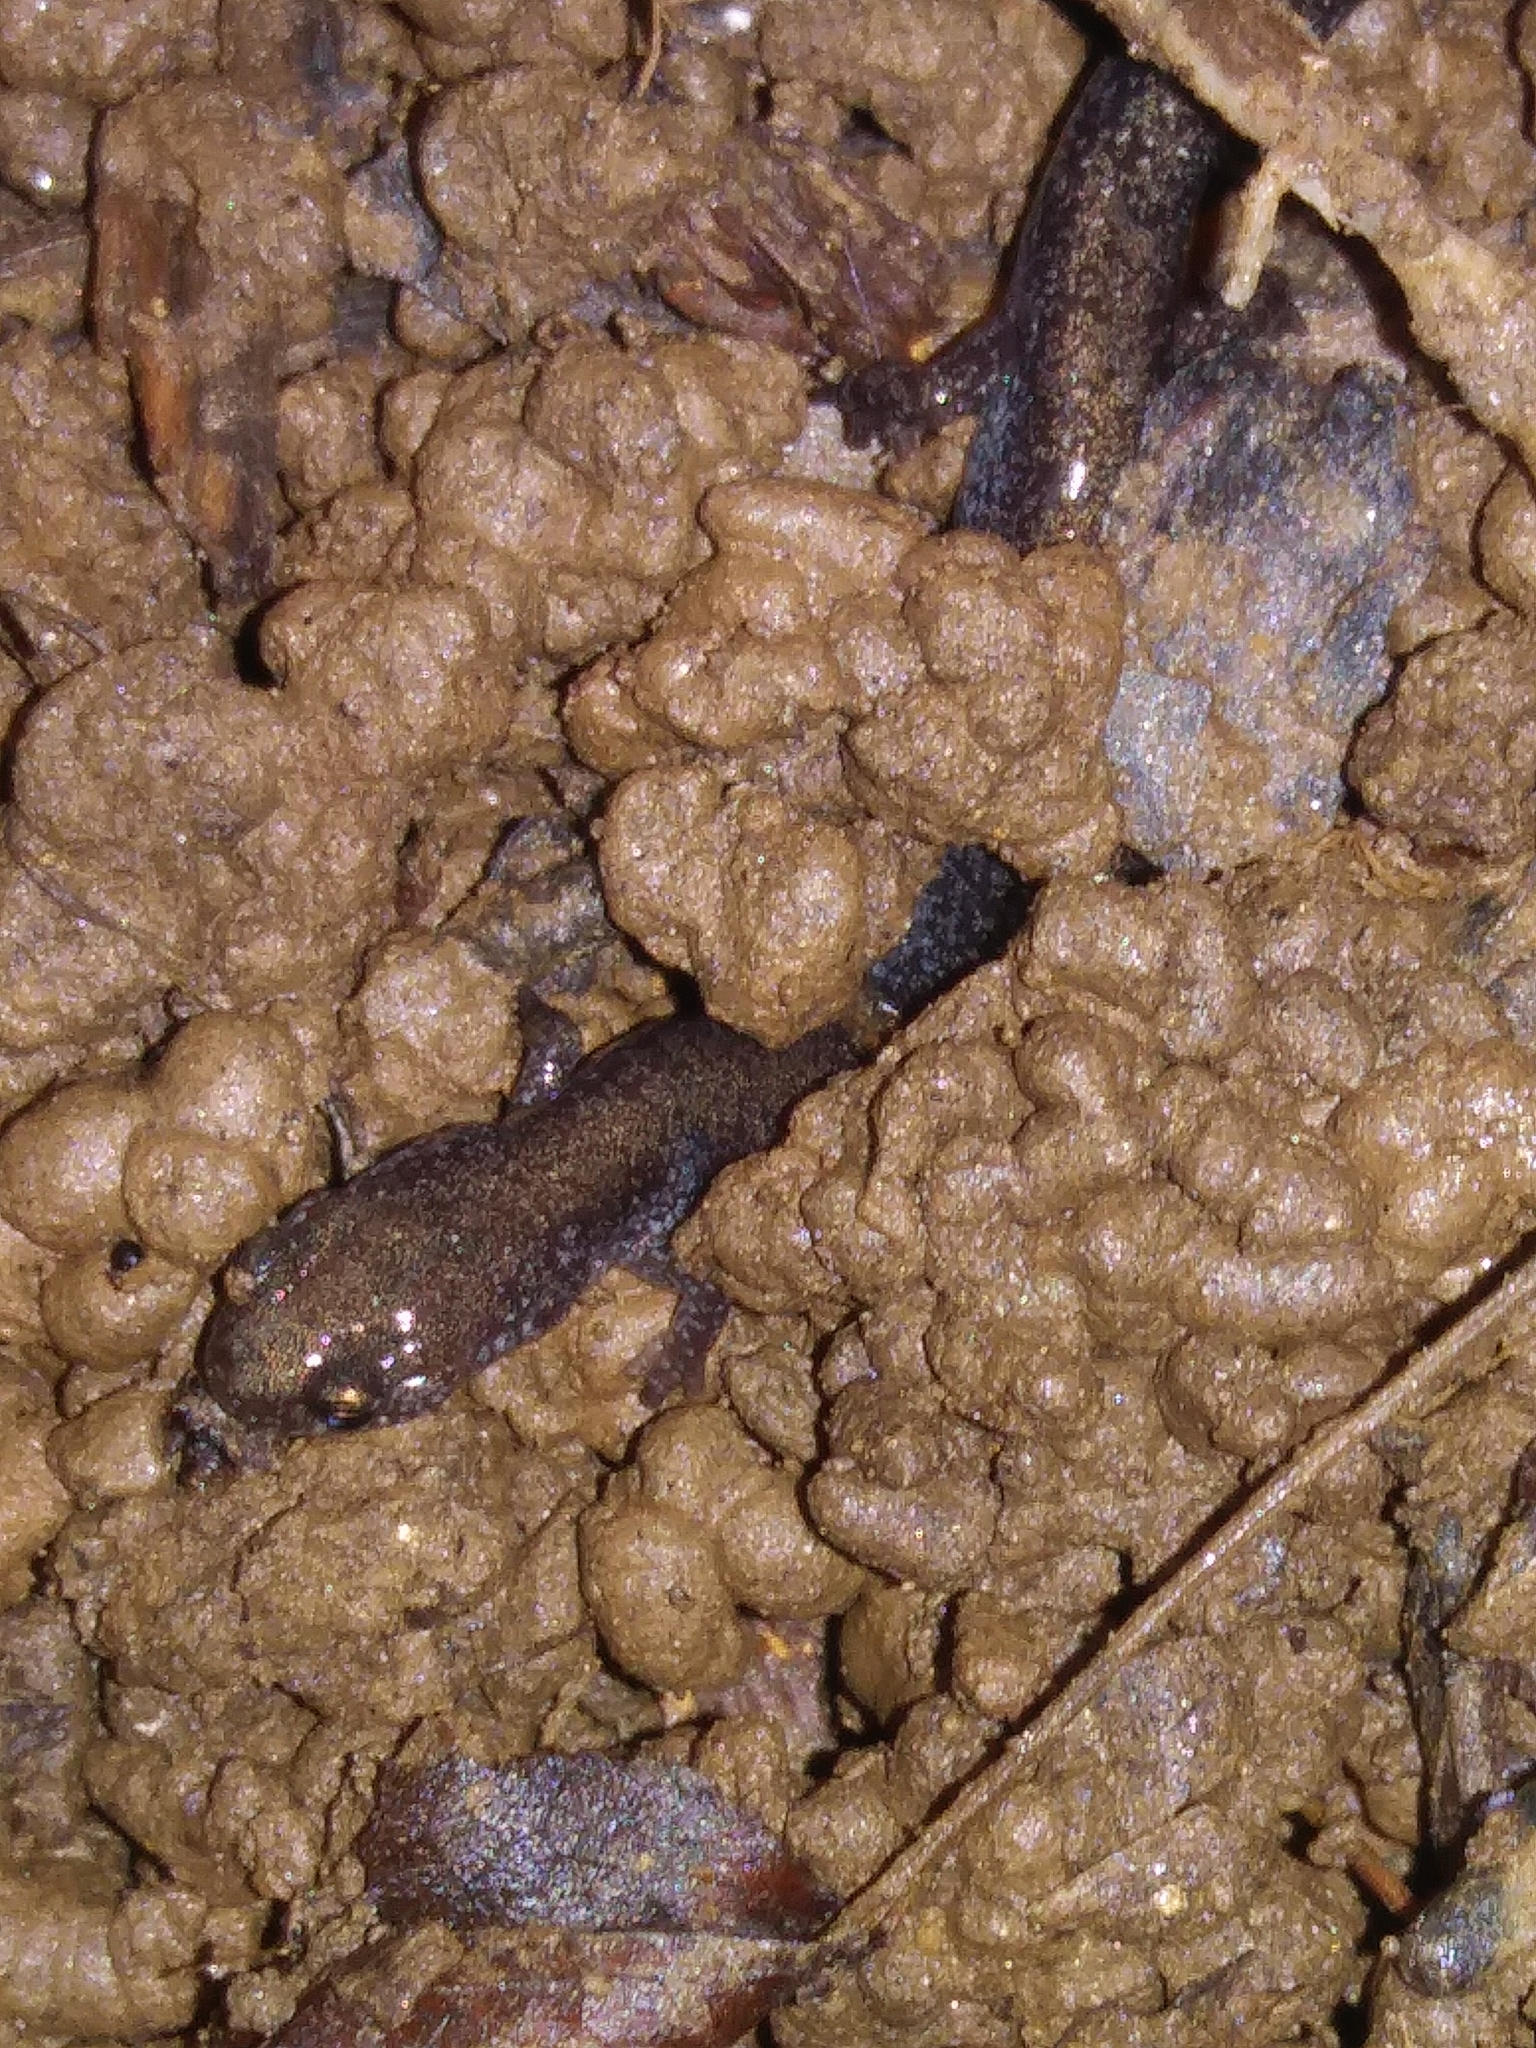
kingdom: Animalia
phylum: Chordata
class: Amphibia
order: Caudata
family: Plethodontidae
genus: Plethodon
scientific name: Plethodon cinereus
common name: Redback salamander
